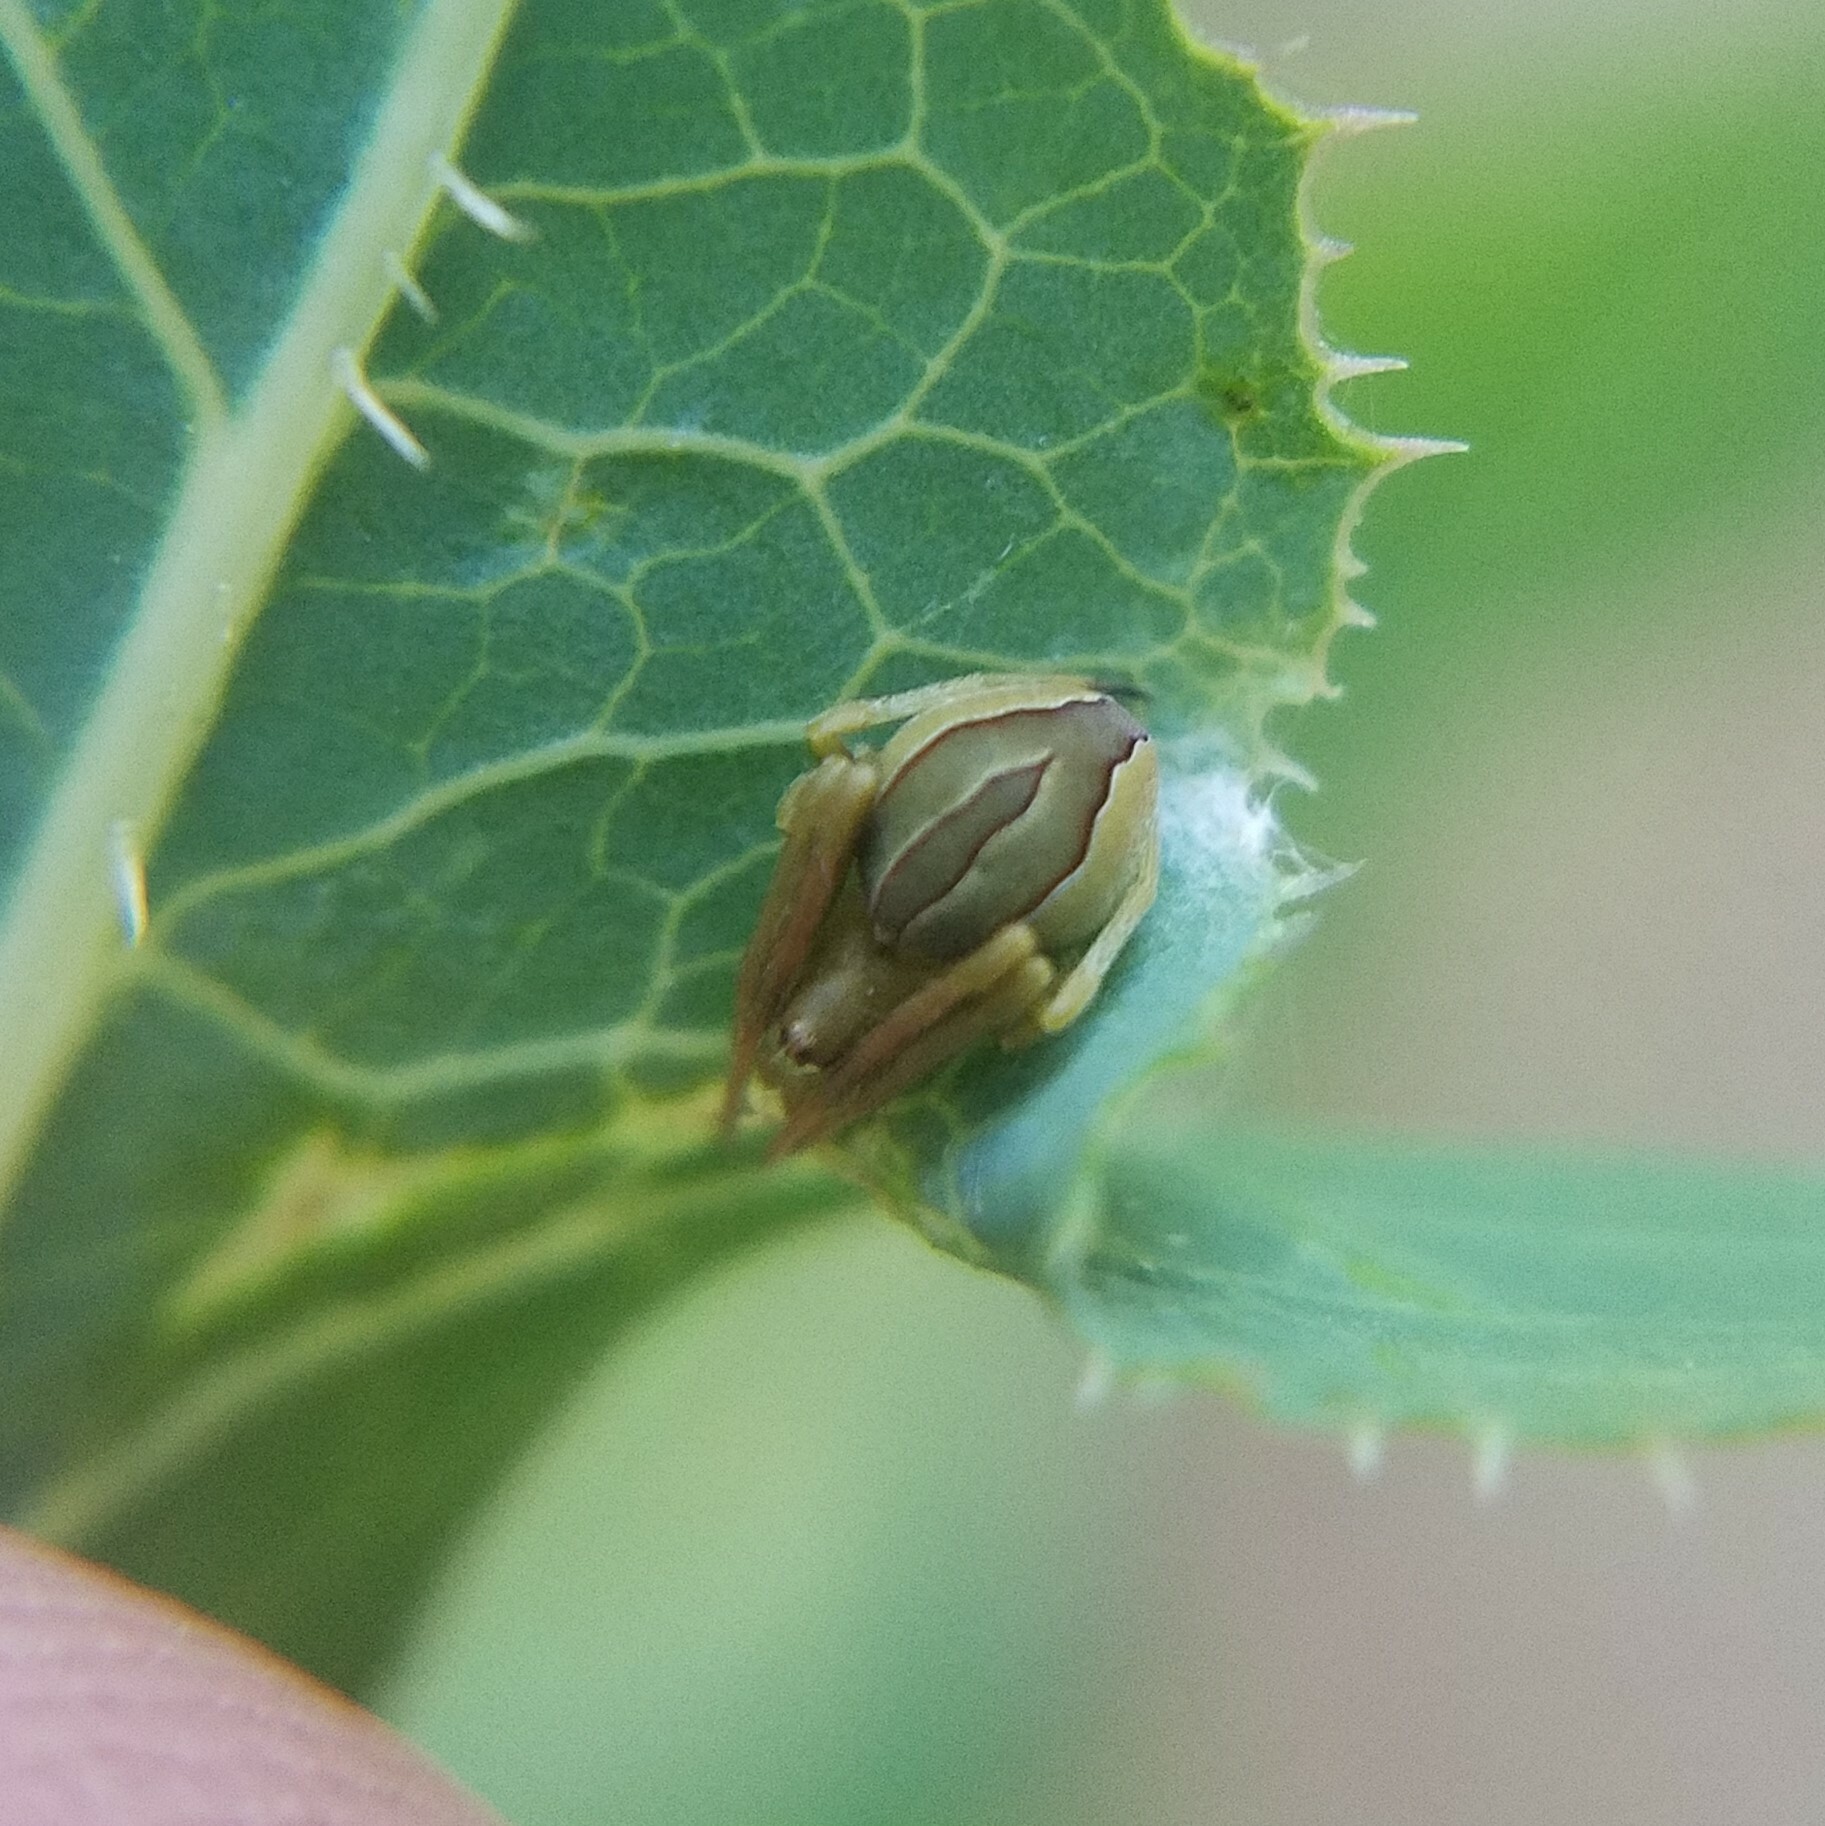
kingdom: Animalia
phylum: Arthropoda
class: Arachnida
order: Araneae
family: Araneidae
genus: Acacesia
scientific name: Acacesia hamata
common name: Orb weavers
